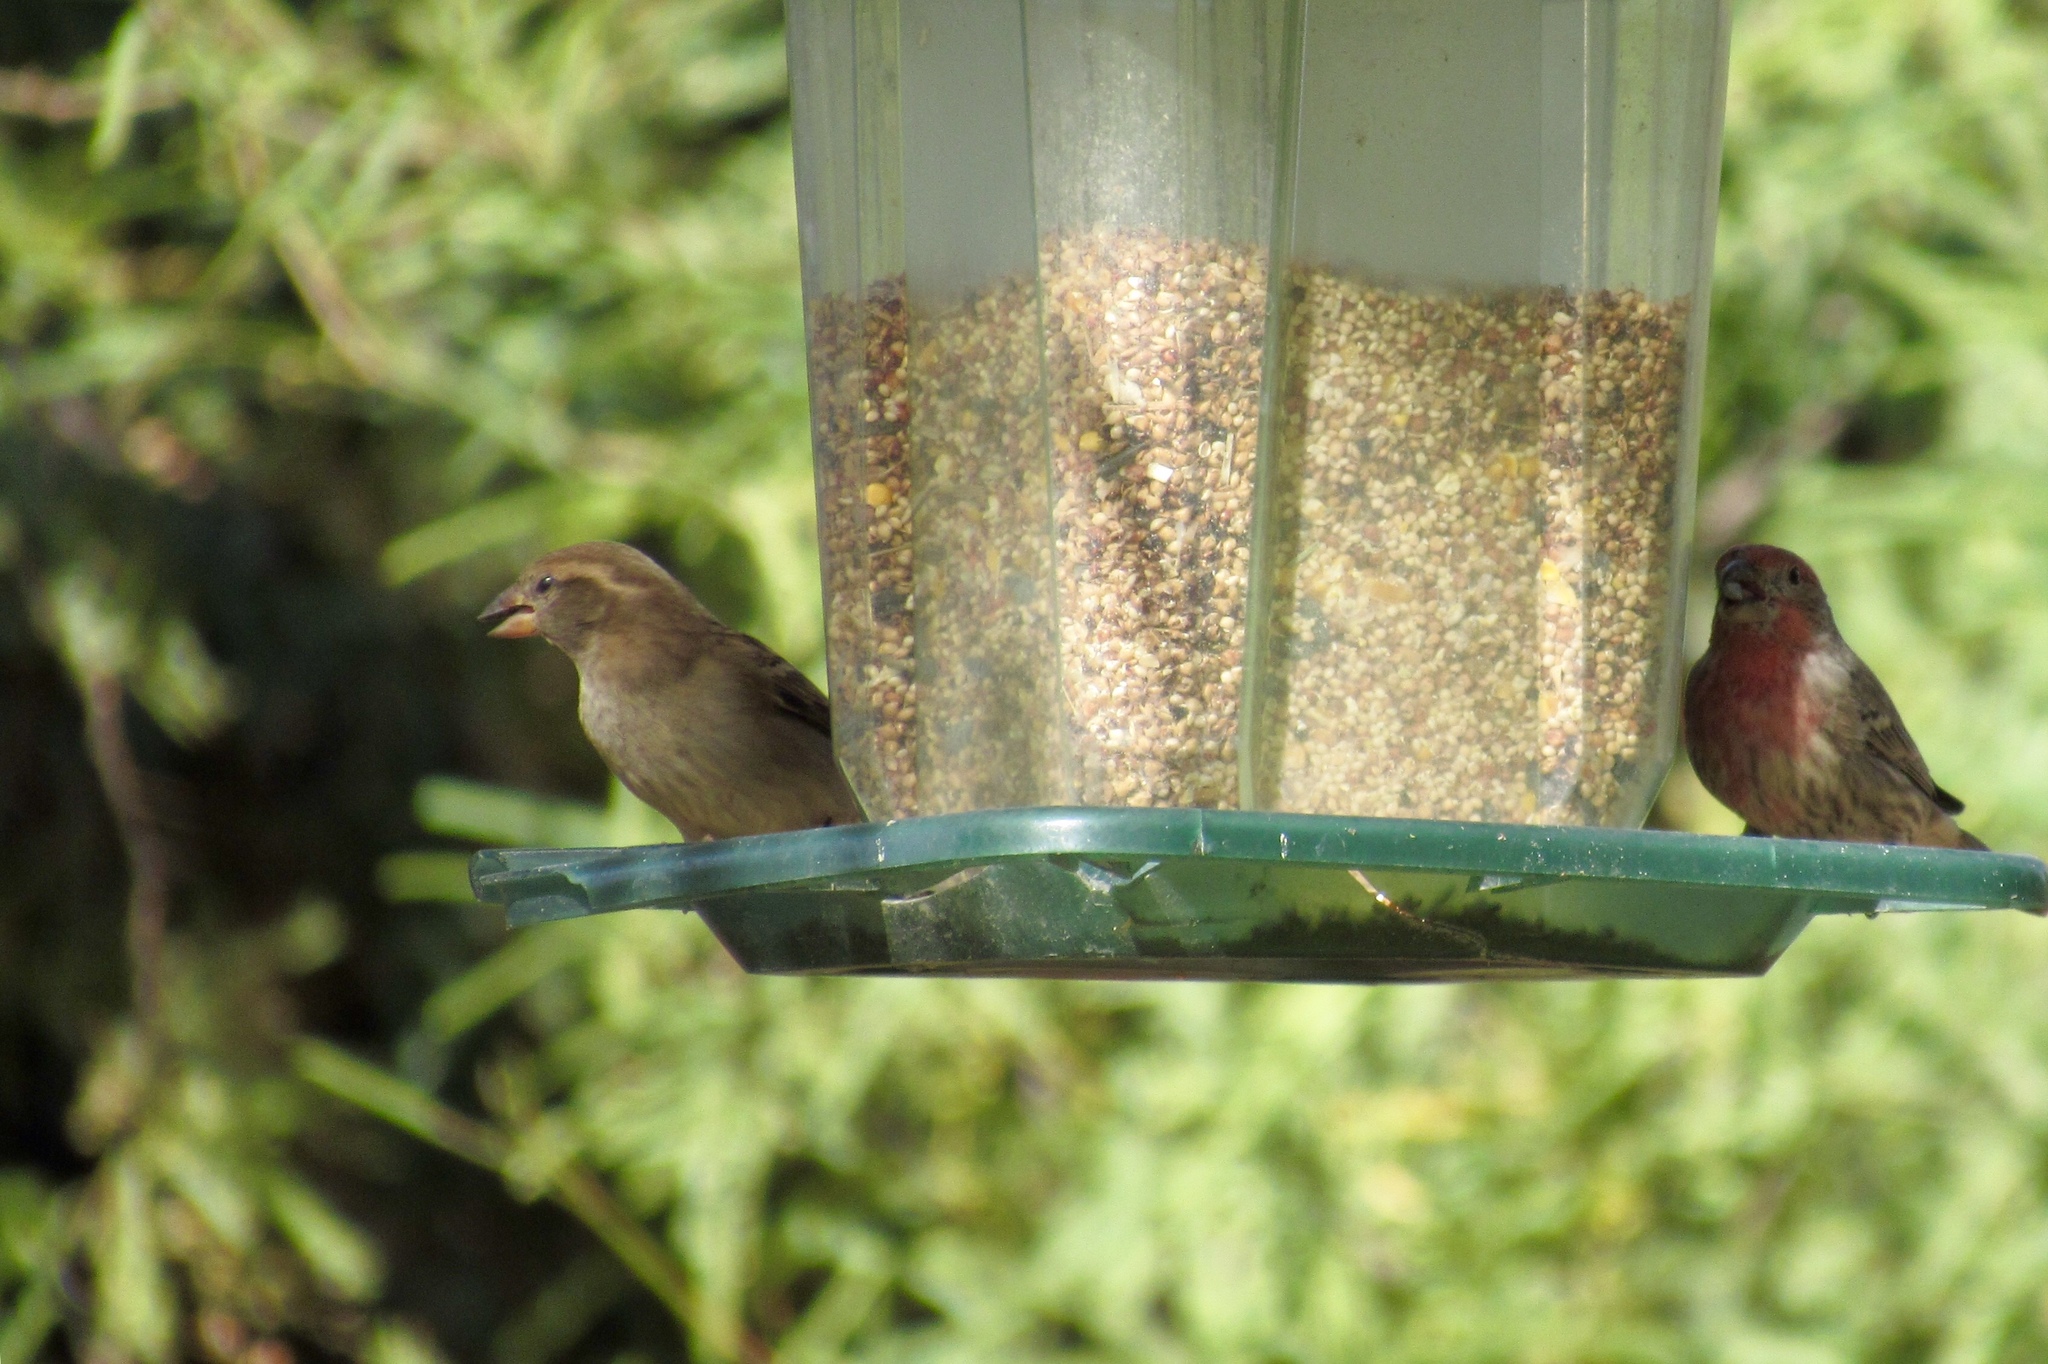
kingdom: Animalia
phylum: Chordata
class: Aves
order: Passeriformes
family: Passeridae
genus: Passer
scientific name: Passer domesticus
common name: House sparrow
